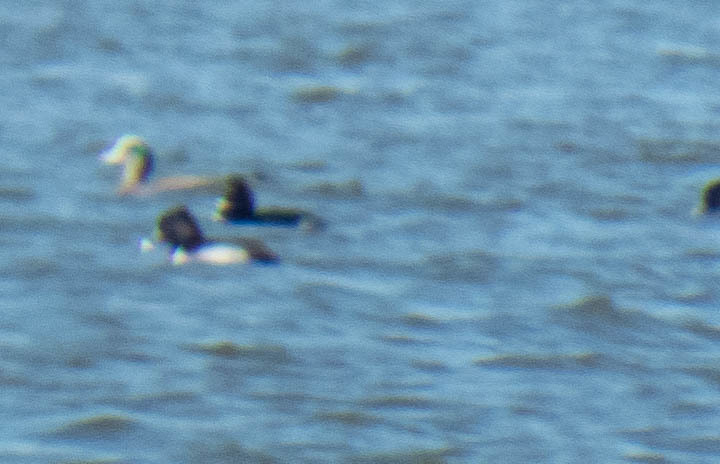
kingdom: Animalia
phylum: Chordata
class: Aves
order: Anseriformes
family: Anatidae
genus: Mareca
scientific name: Mareca americana
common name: American wigeon
